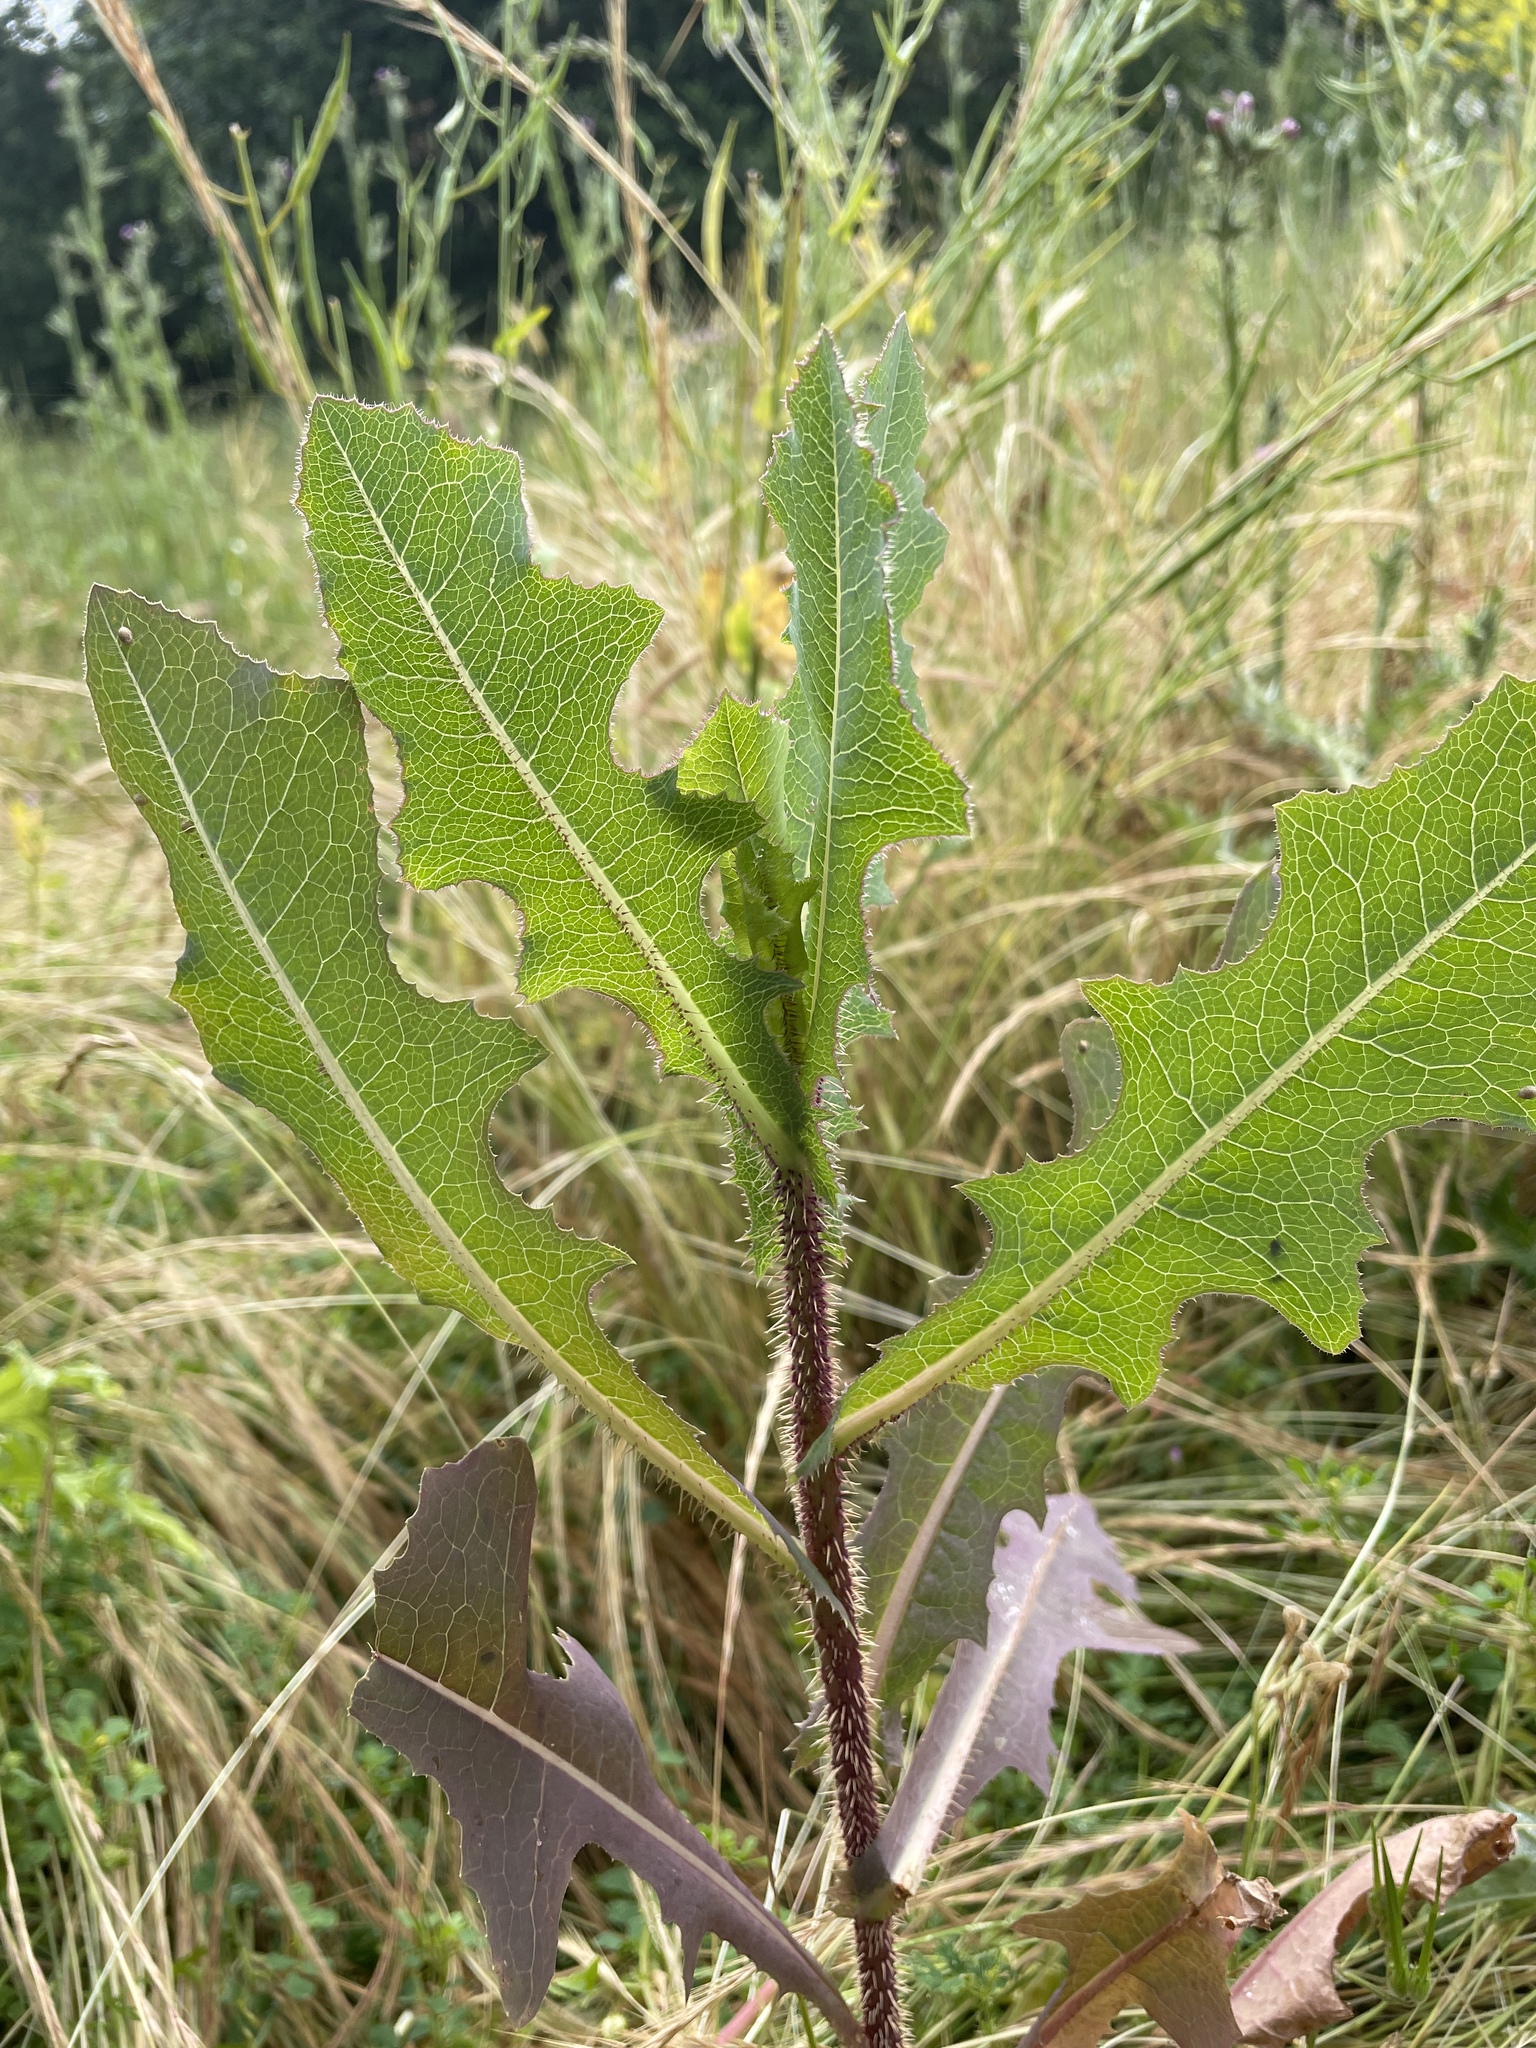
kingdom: Plantae
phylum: Tracheophyta
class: Magnoliopsida
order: Asterales
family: Asteraceae
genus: Lactuca
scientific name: Lactuca serriola
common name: Prickly lettuce
